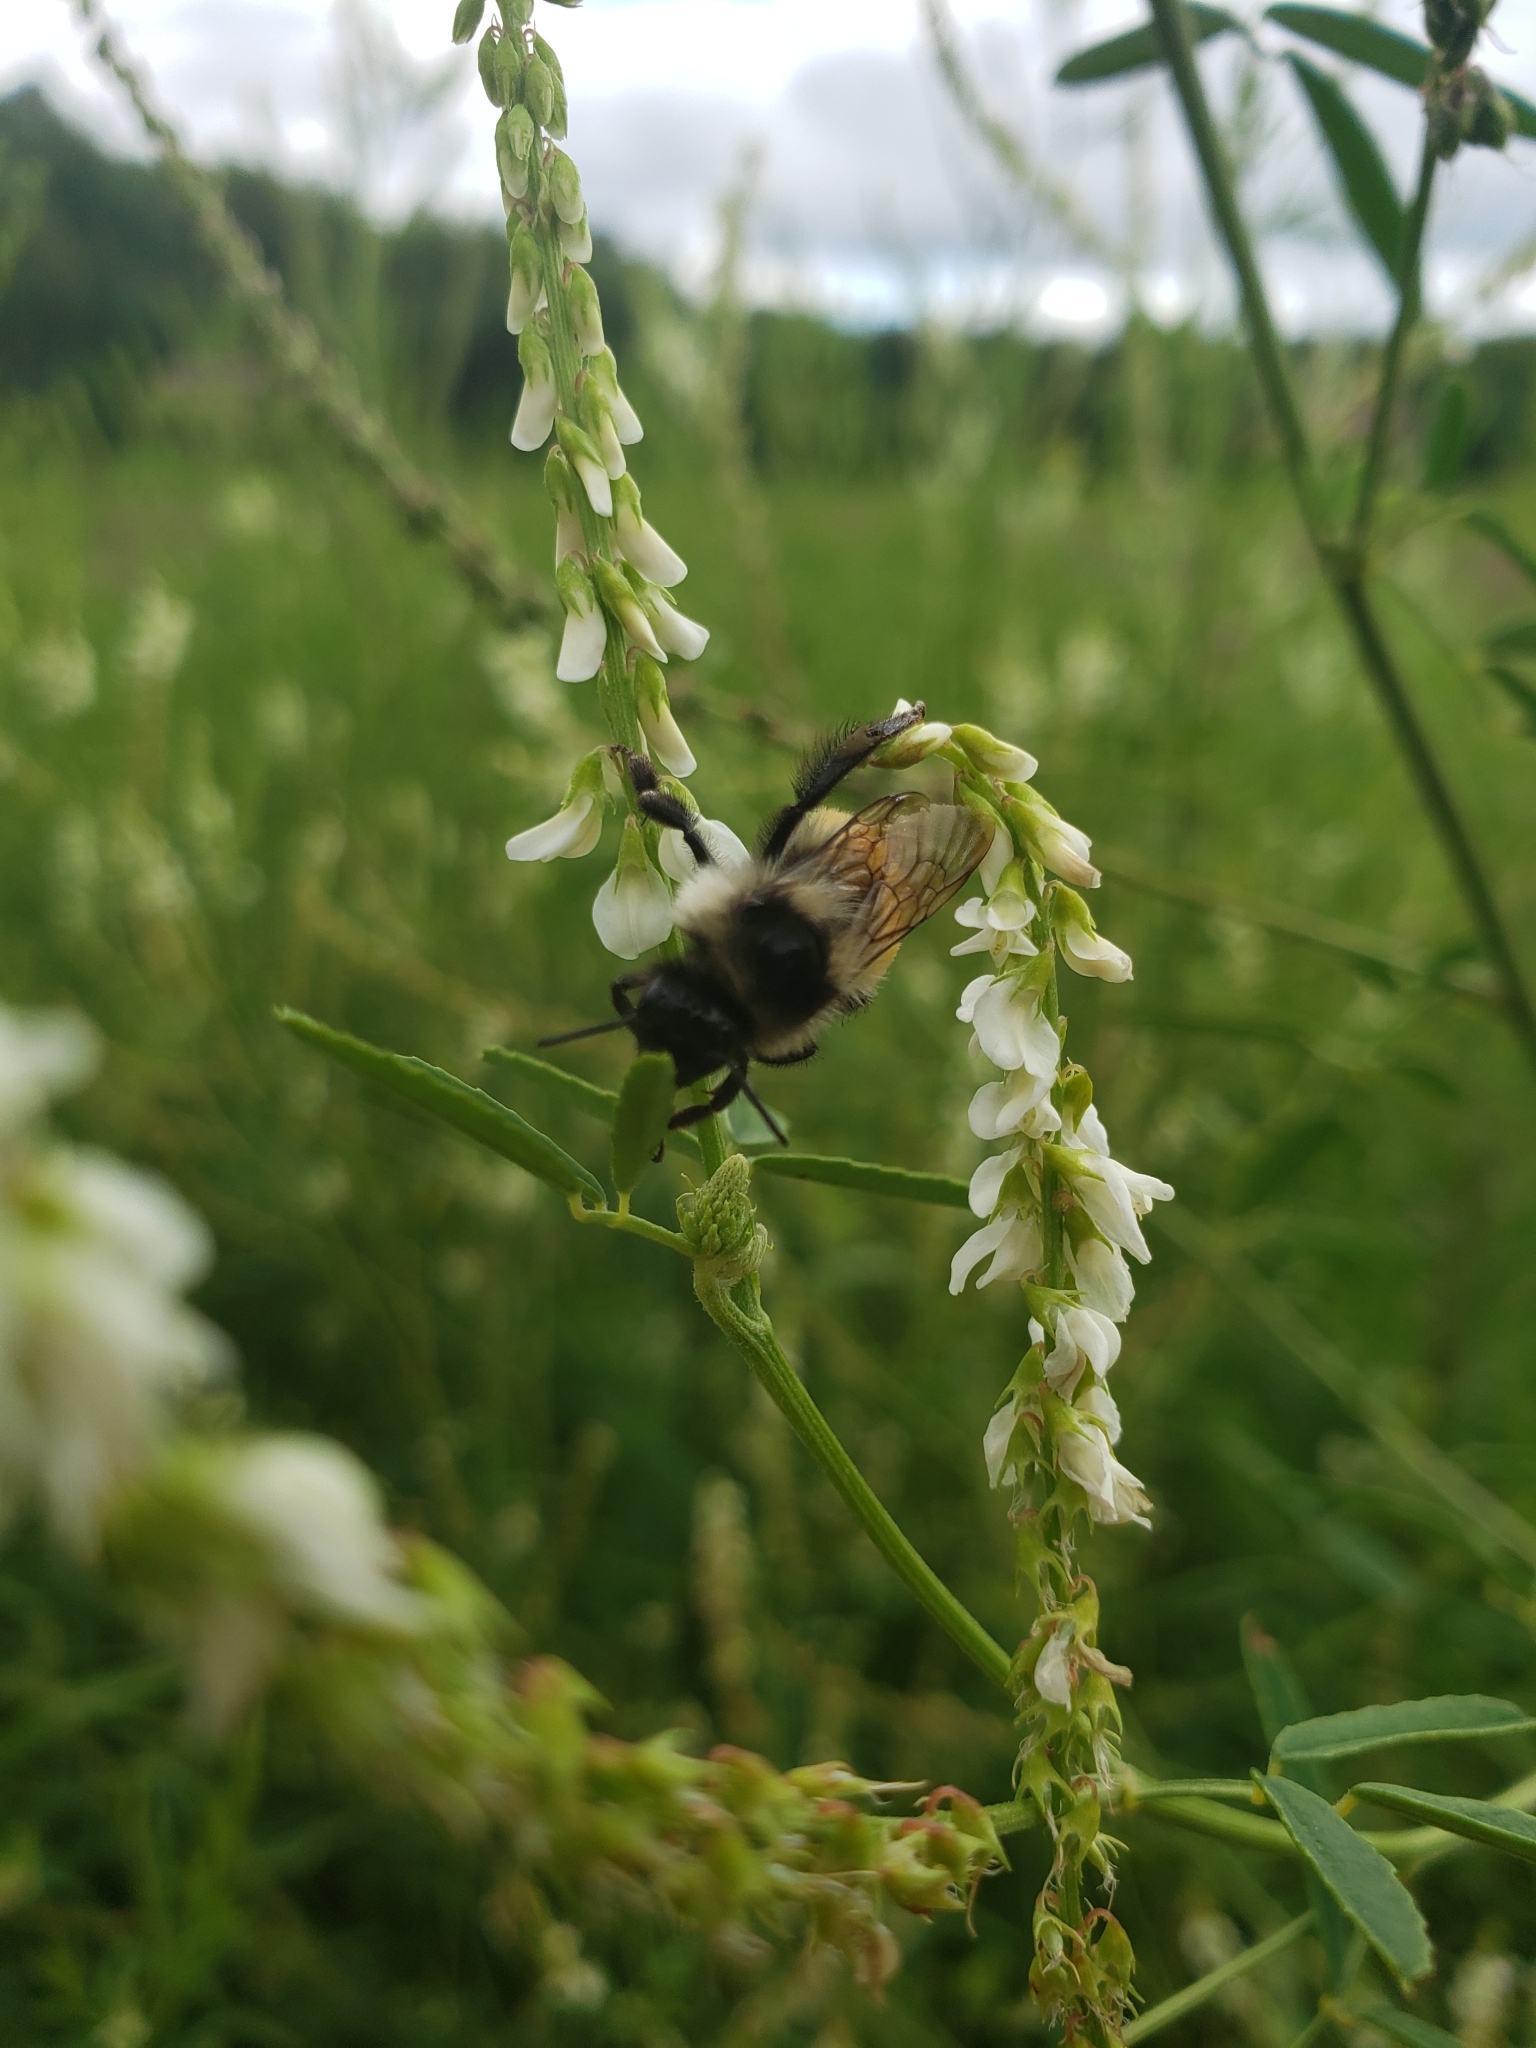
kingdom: Animalia
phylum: Arthropoda
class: Insecta
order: Hymenoptera
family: Apidae
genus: Bombus
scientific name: Bombus ternarius
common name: Tri-colored bumble bee
